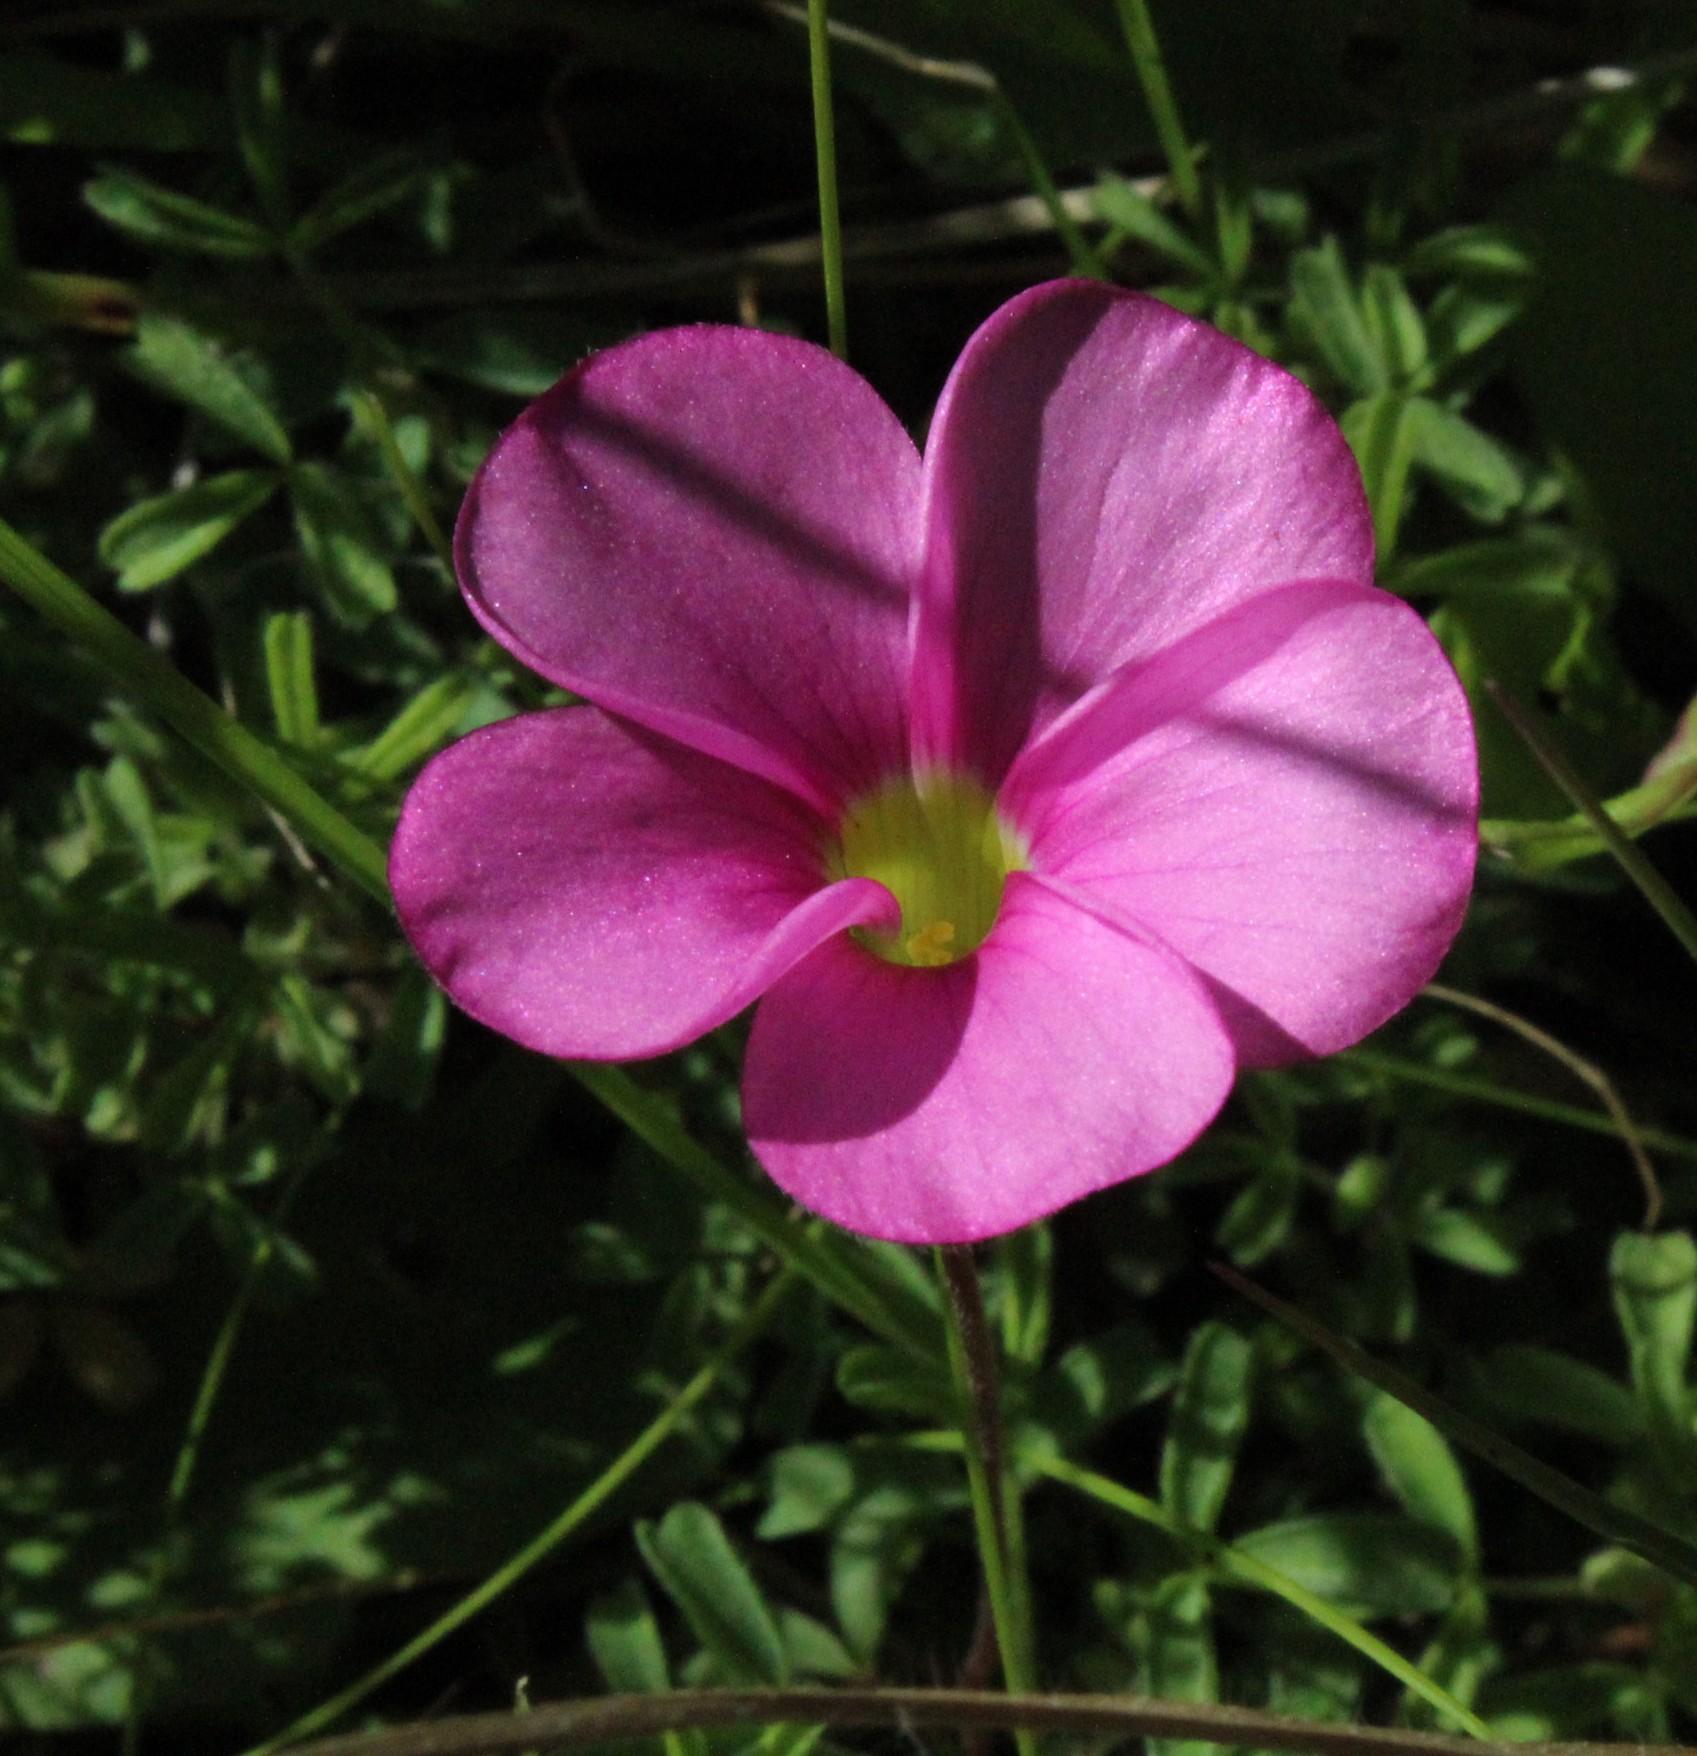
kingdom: Plantae
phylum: Tracheophyta
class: Magnoliopsida
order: Oxalidales
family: Oxalidaceae
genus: Oxalis
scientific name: Oxalis glabra
